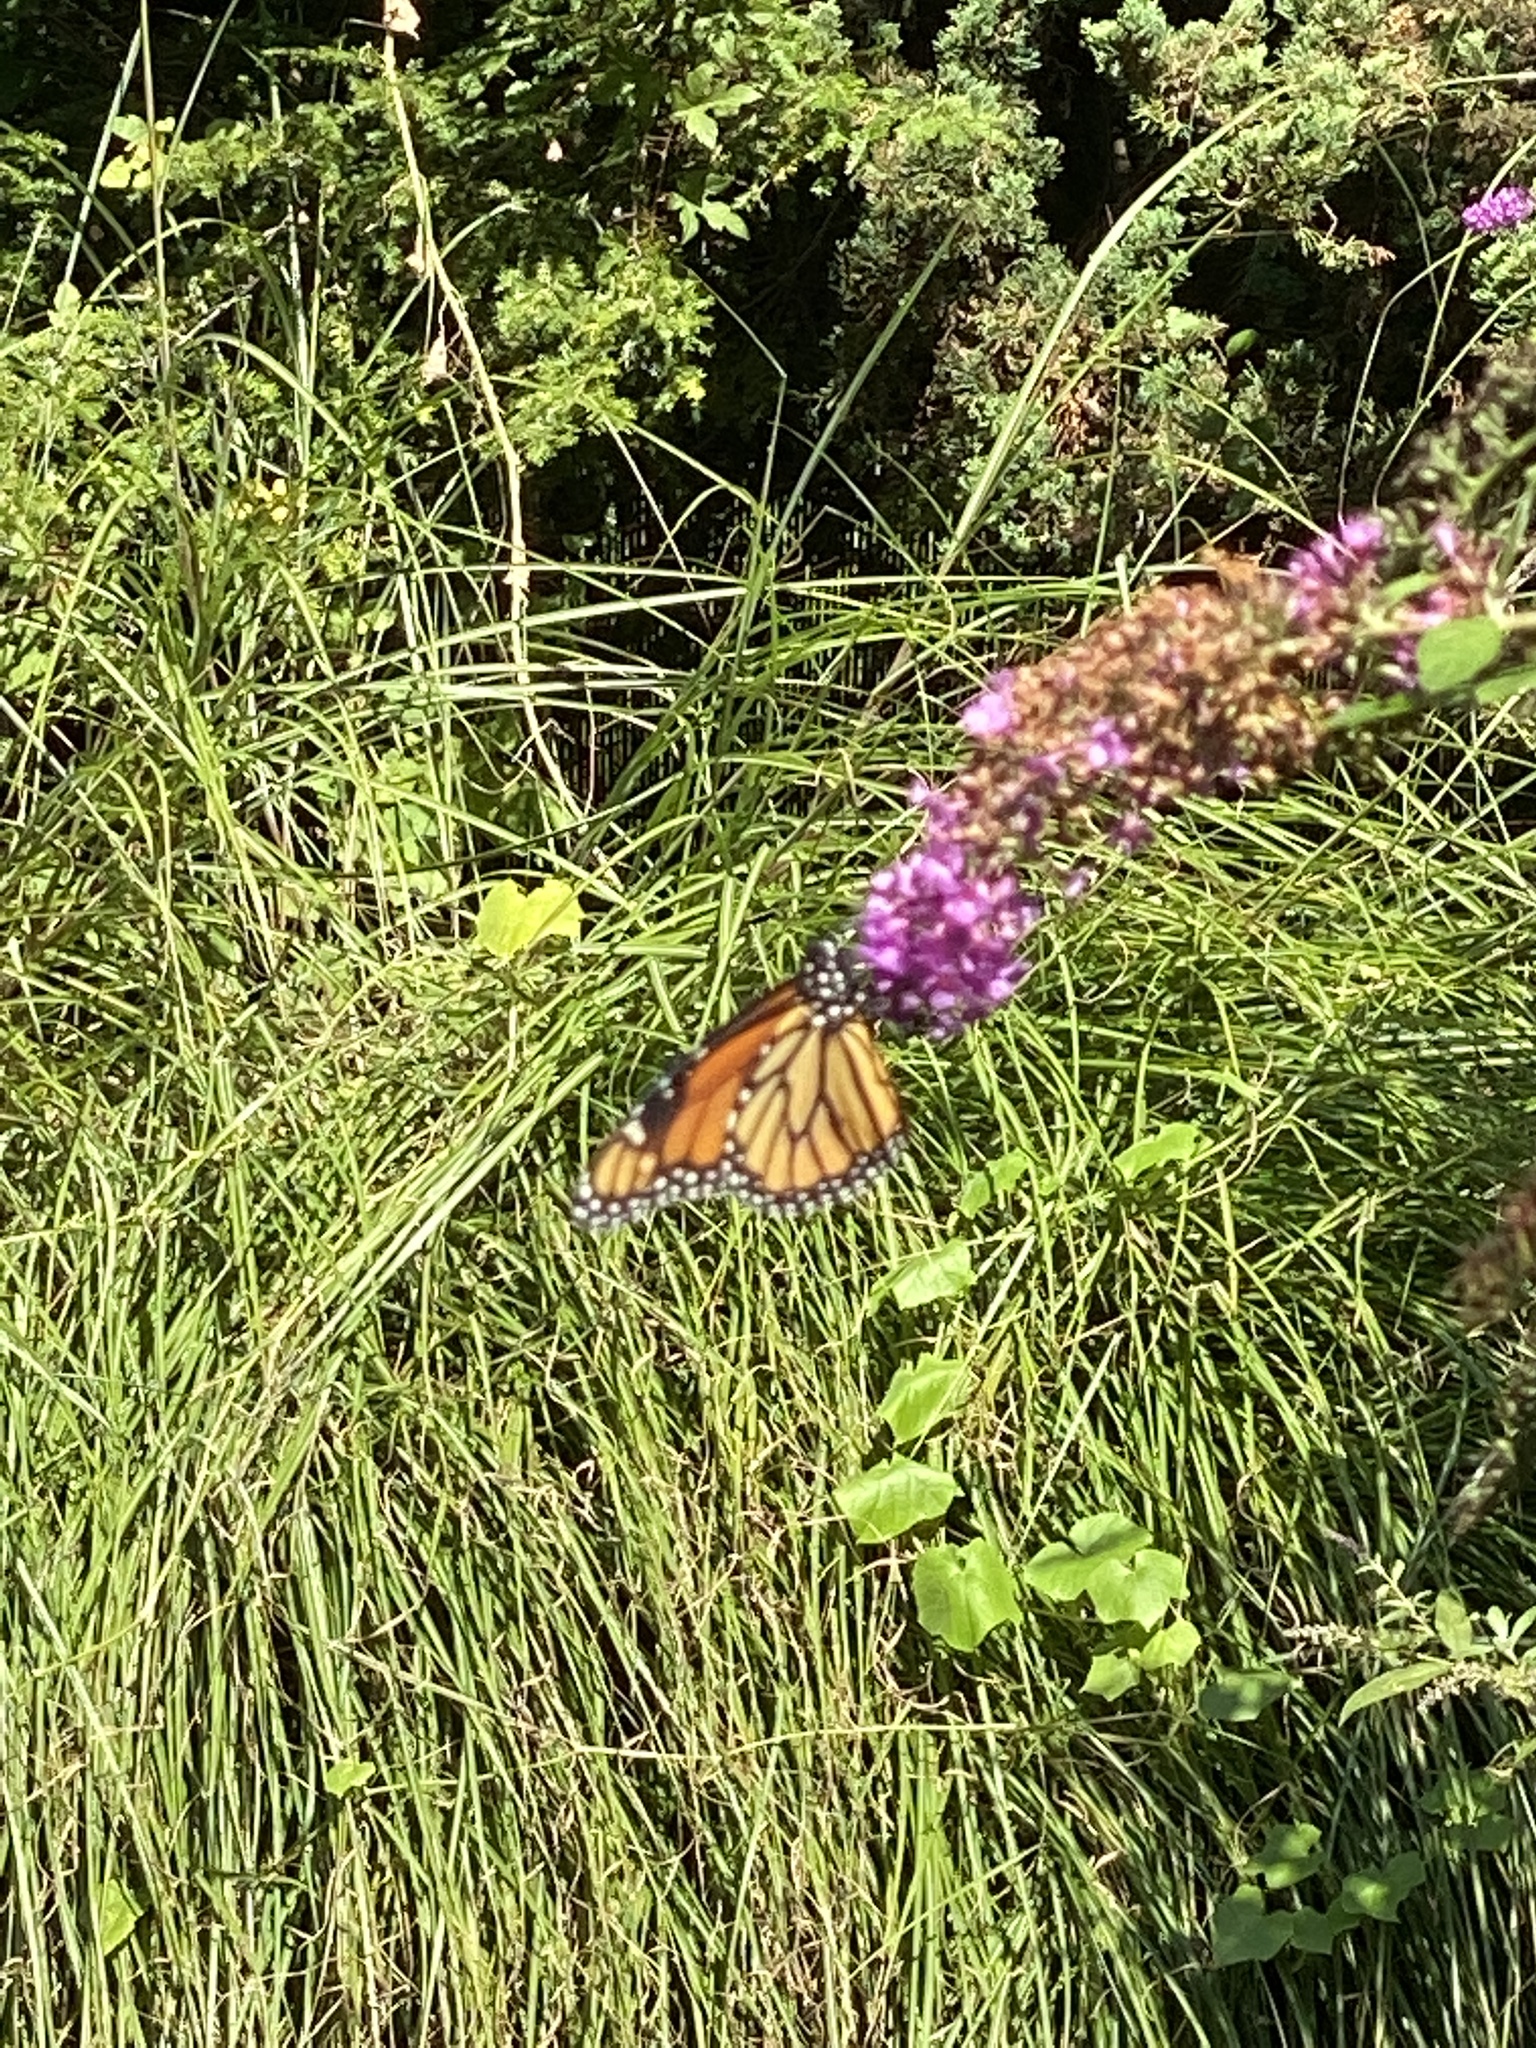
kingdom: Animalia
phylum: Arthropoda
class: Insecta
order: Lepidoptera
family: Nymphalidae
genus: Danaus
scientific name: Danaus plexippus
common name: Monarch
